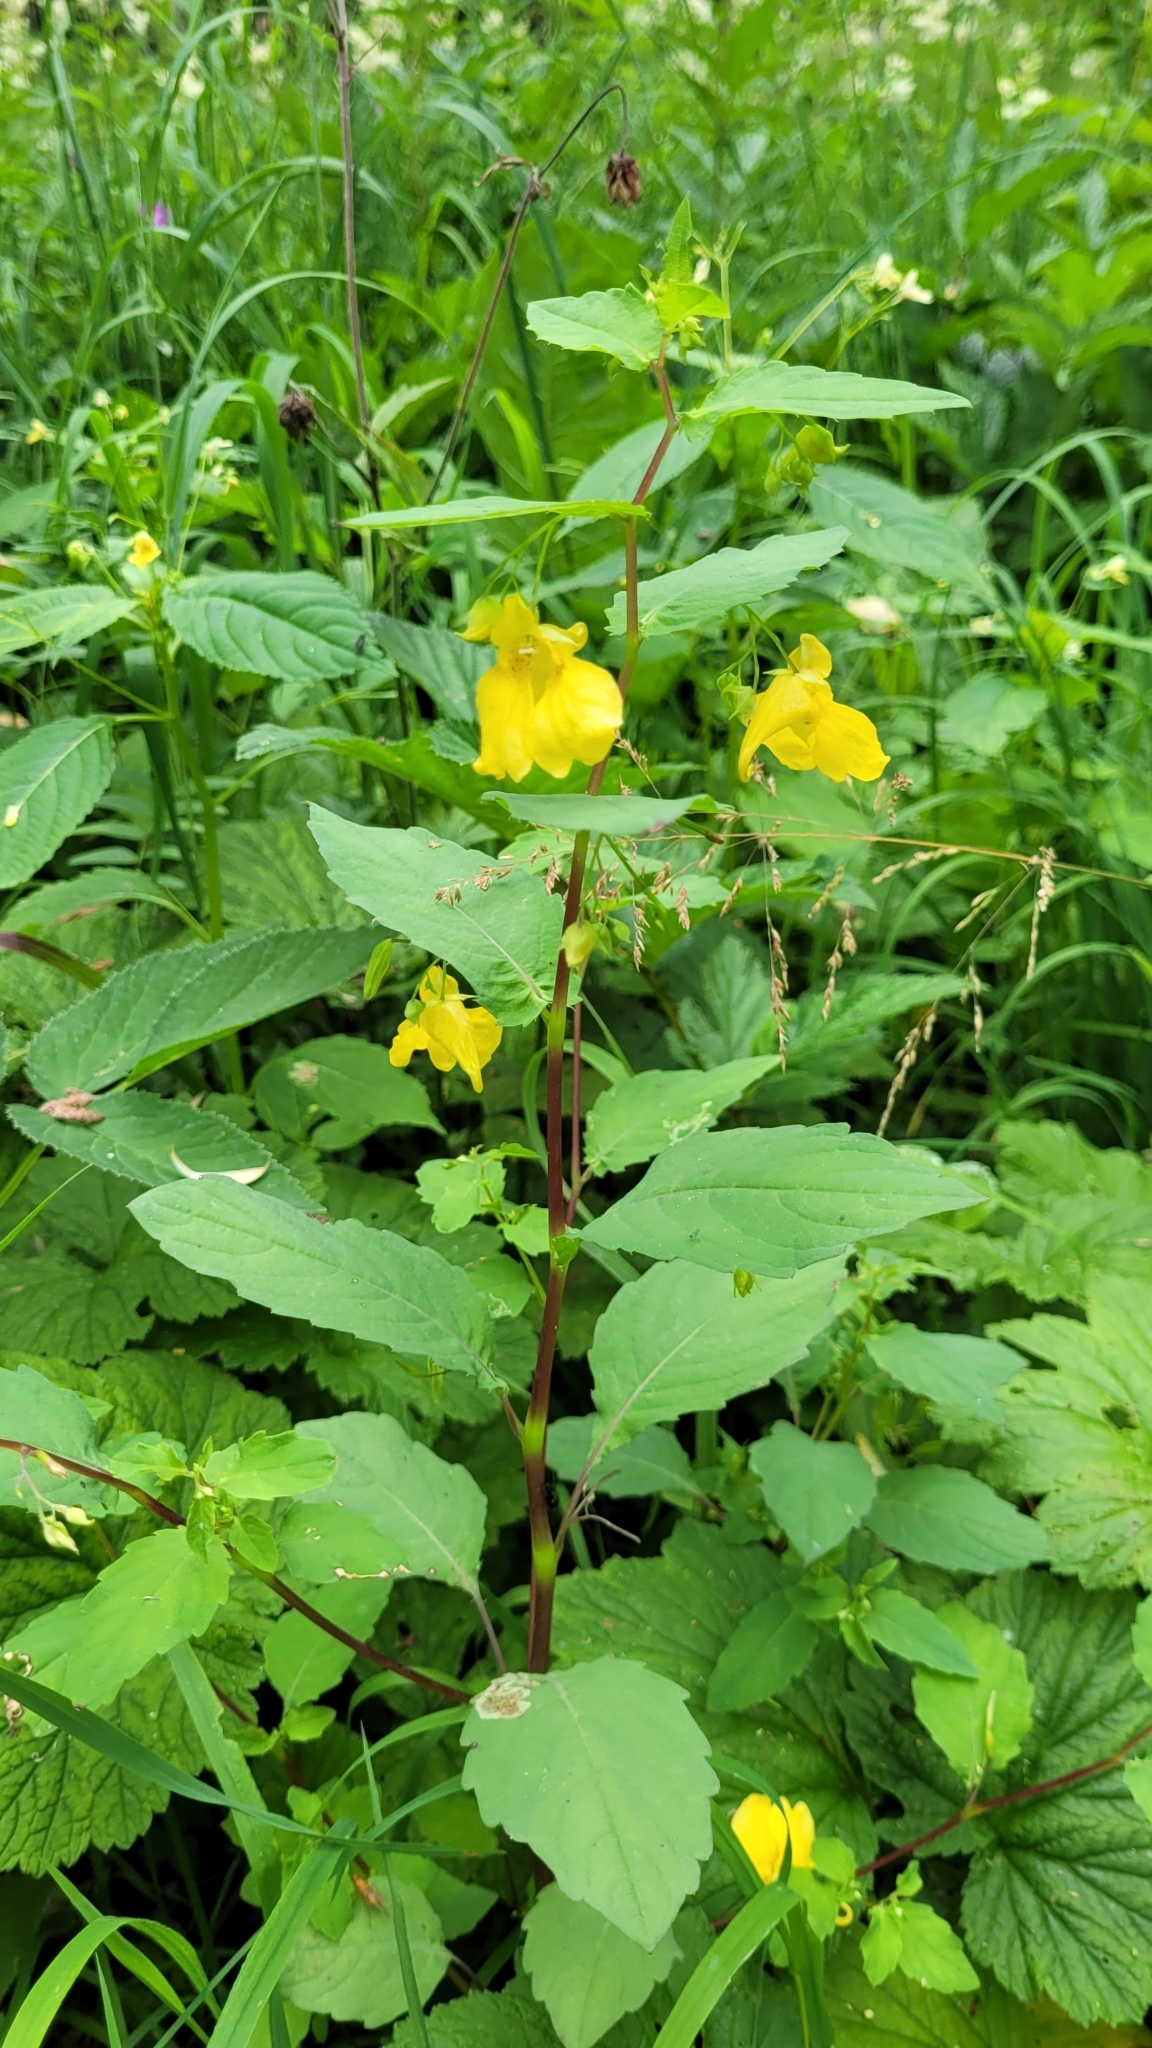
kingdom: Plantae
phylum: Tracheophyta
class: Magnoliopsida
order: Ericales
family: Balsaminaceae
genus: Impatiens
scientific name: Impatiens noli-tangere
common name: Touch-me-not balsam
